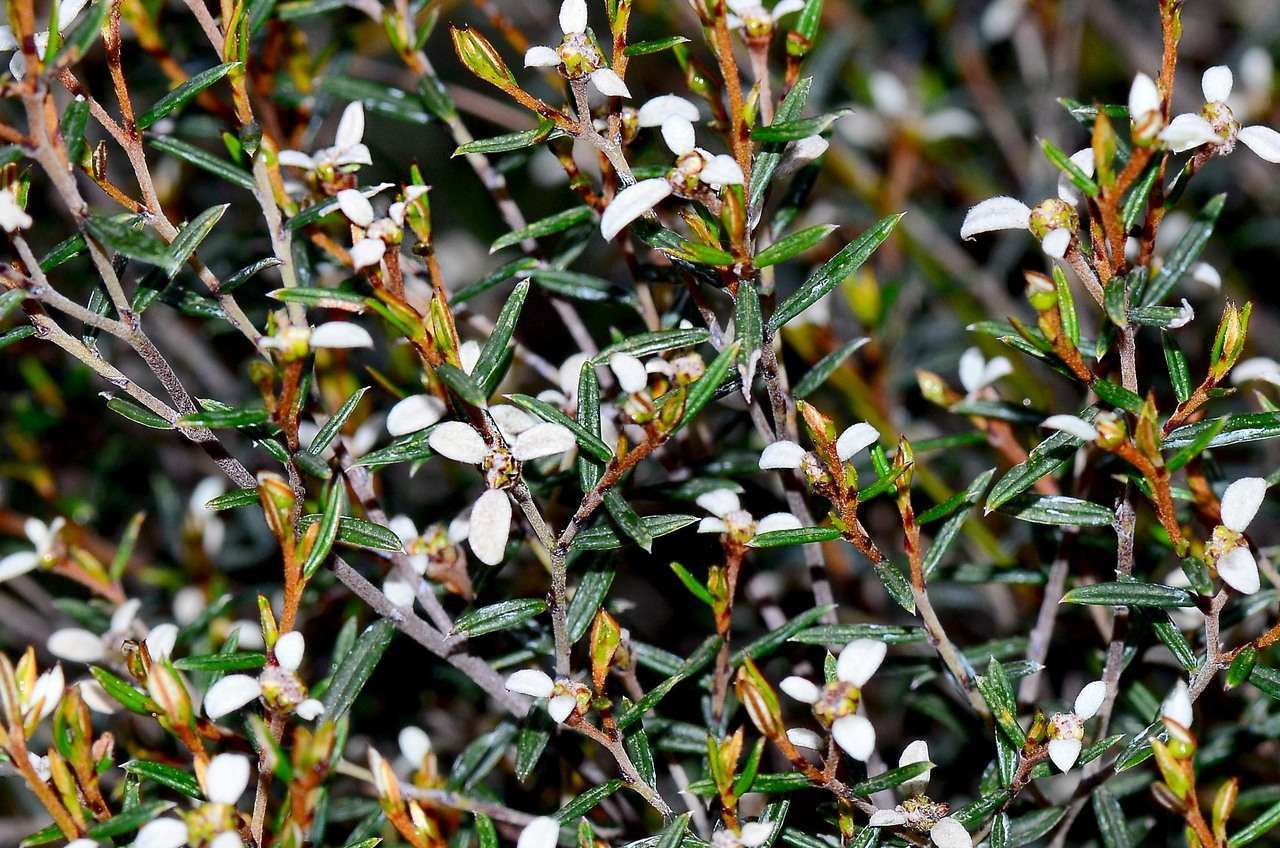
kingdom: Plantae
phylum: Tracheophyta
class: Magnoliopsida
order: Rosales
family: Rhamnaceae
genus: Spyridium
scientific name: Spyridium vexilliferum
